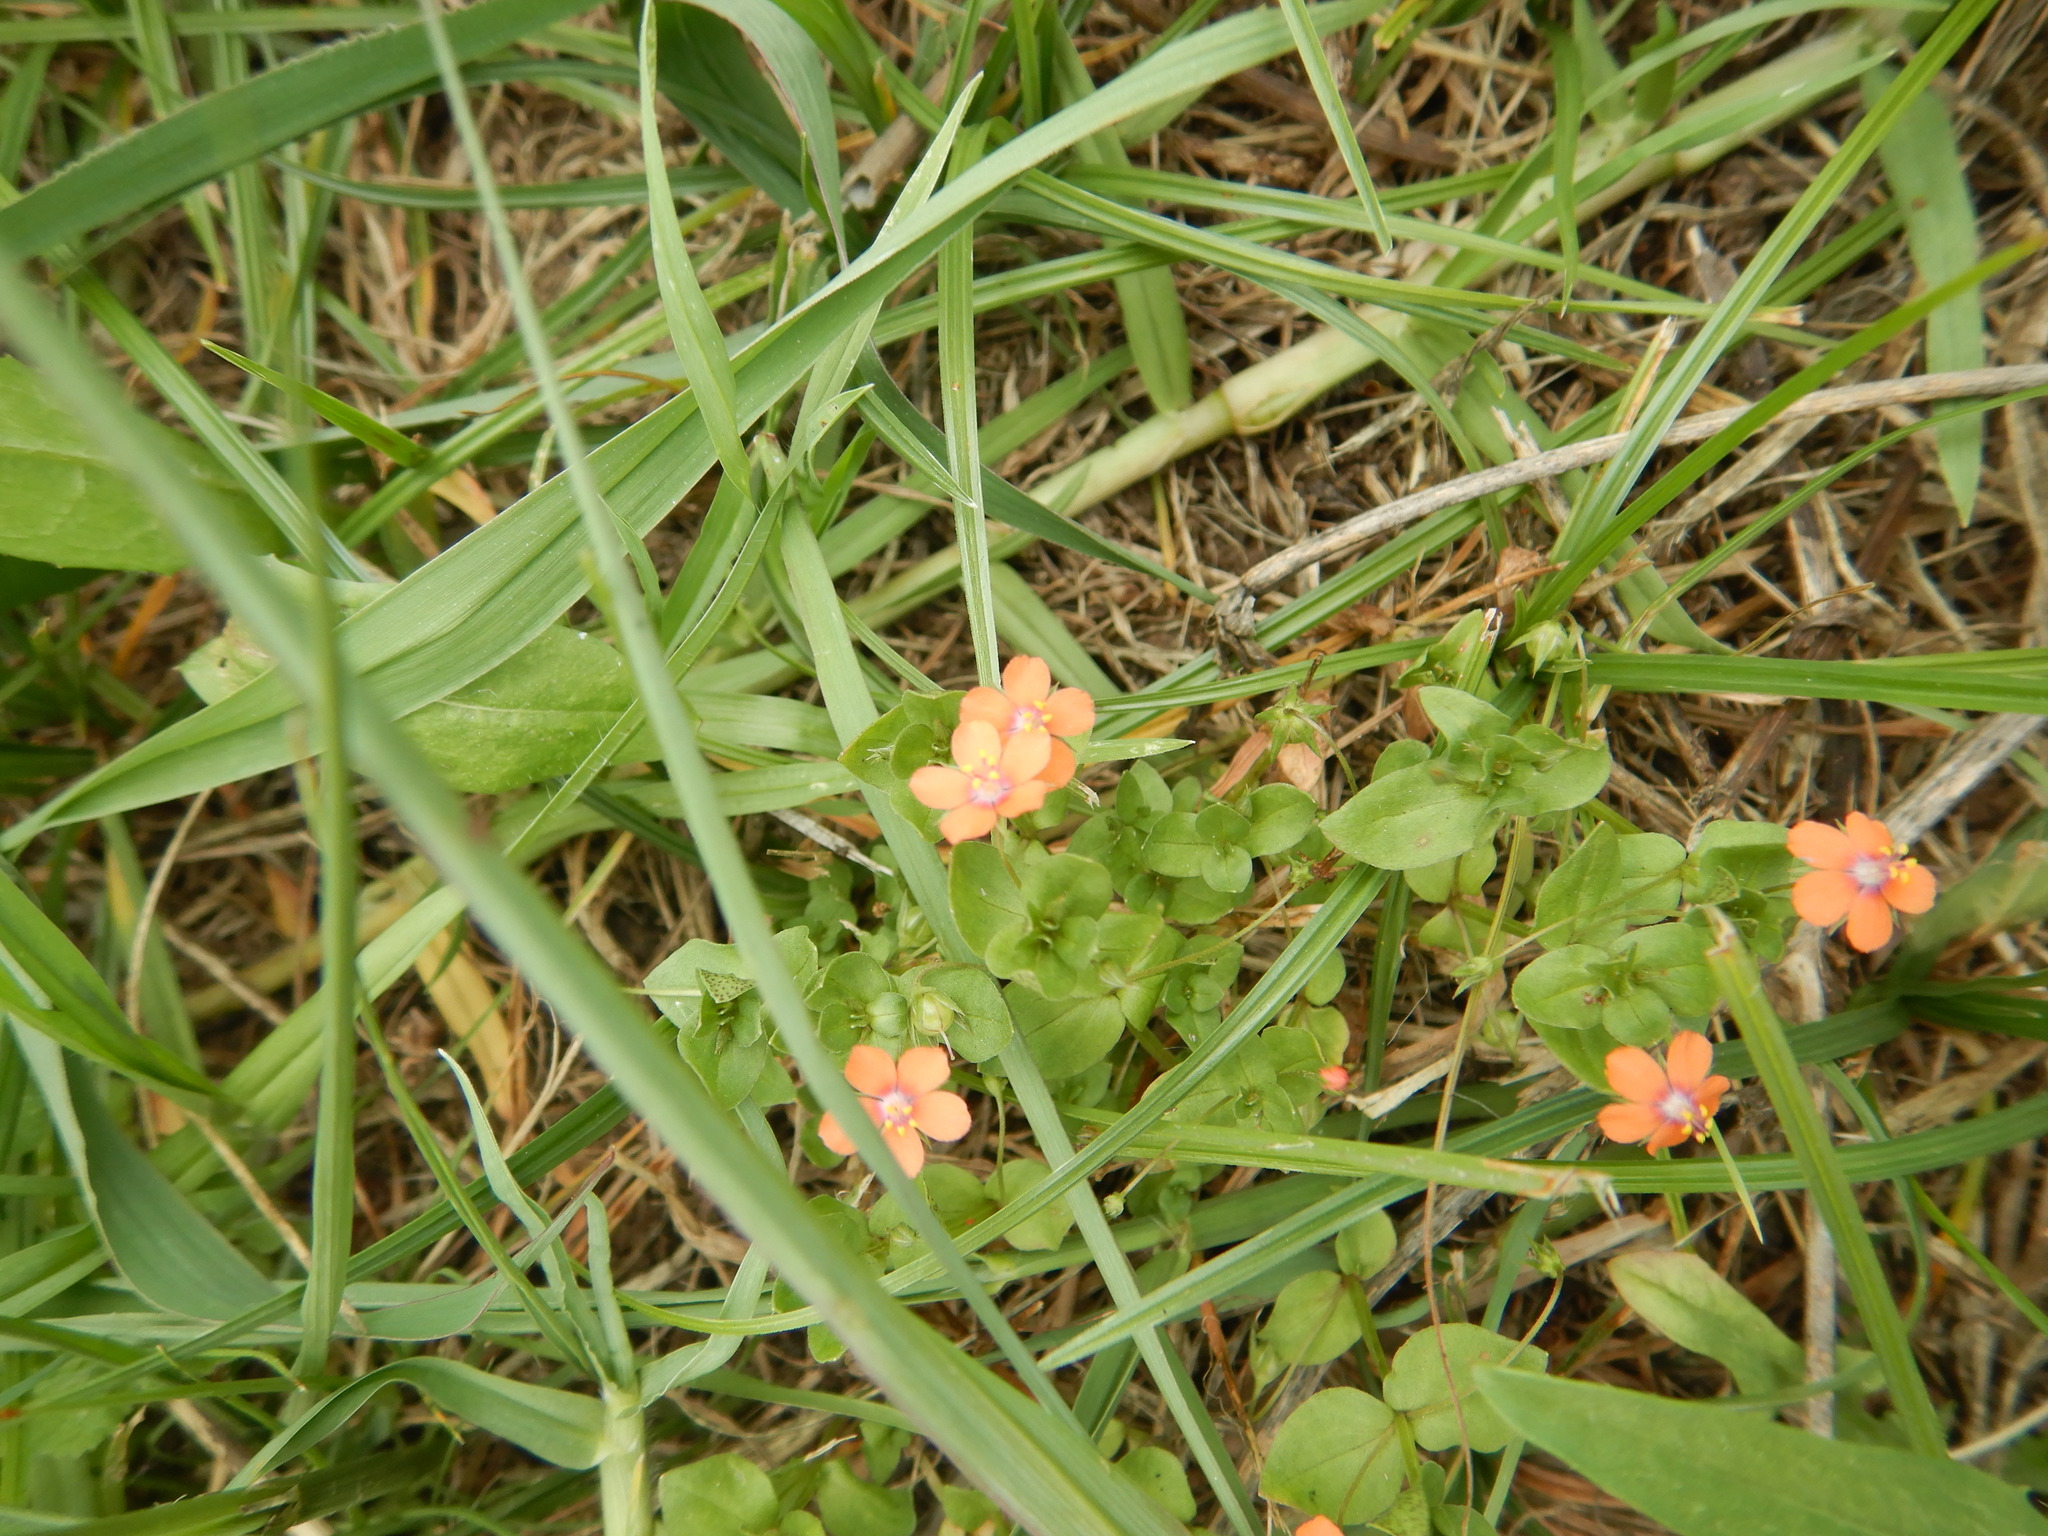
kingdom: Plantae
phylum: Tracheophyta
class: Magnoliopsida
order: Ericales
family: Primulaceae
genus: Lysimachia
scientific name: Lysimachia arvensis
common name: Scarlet pimpernel
